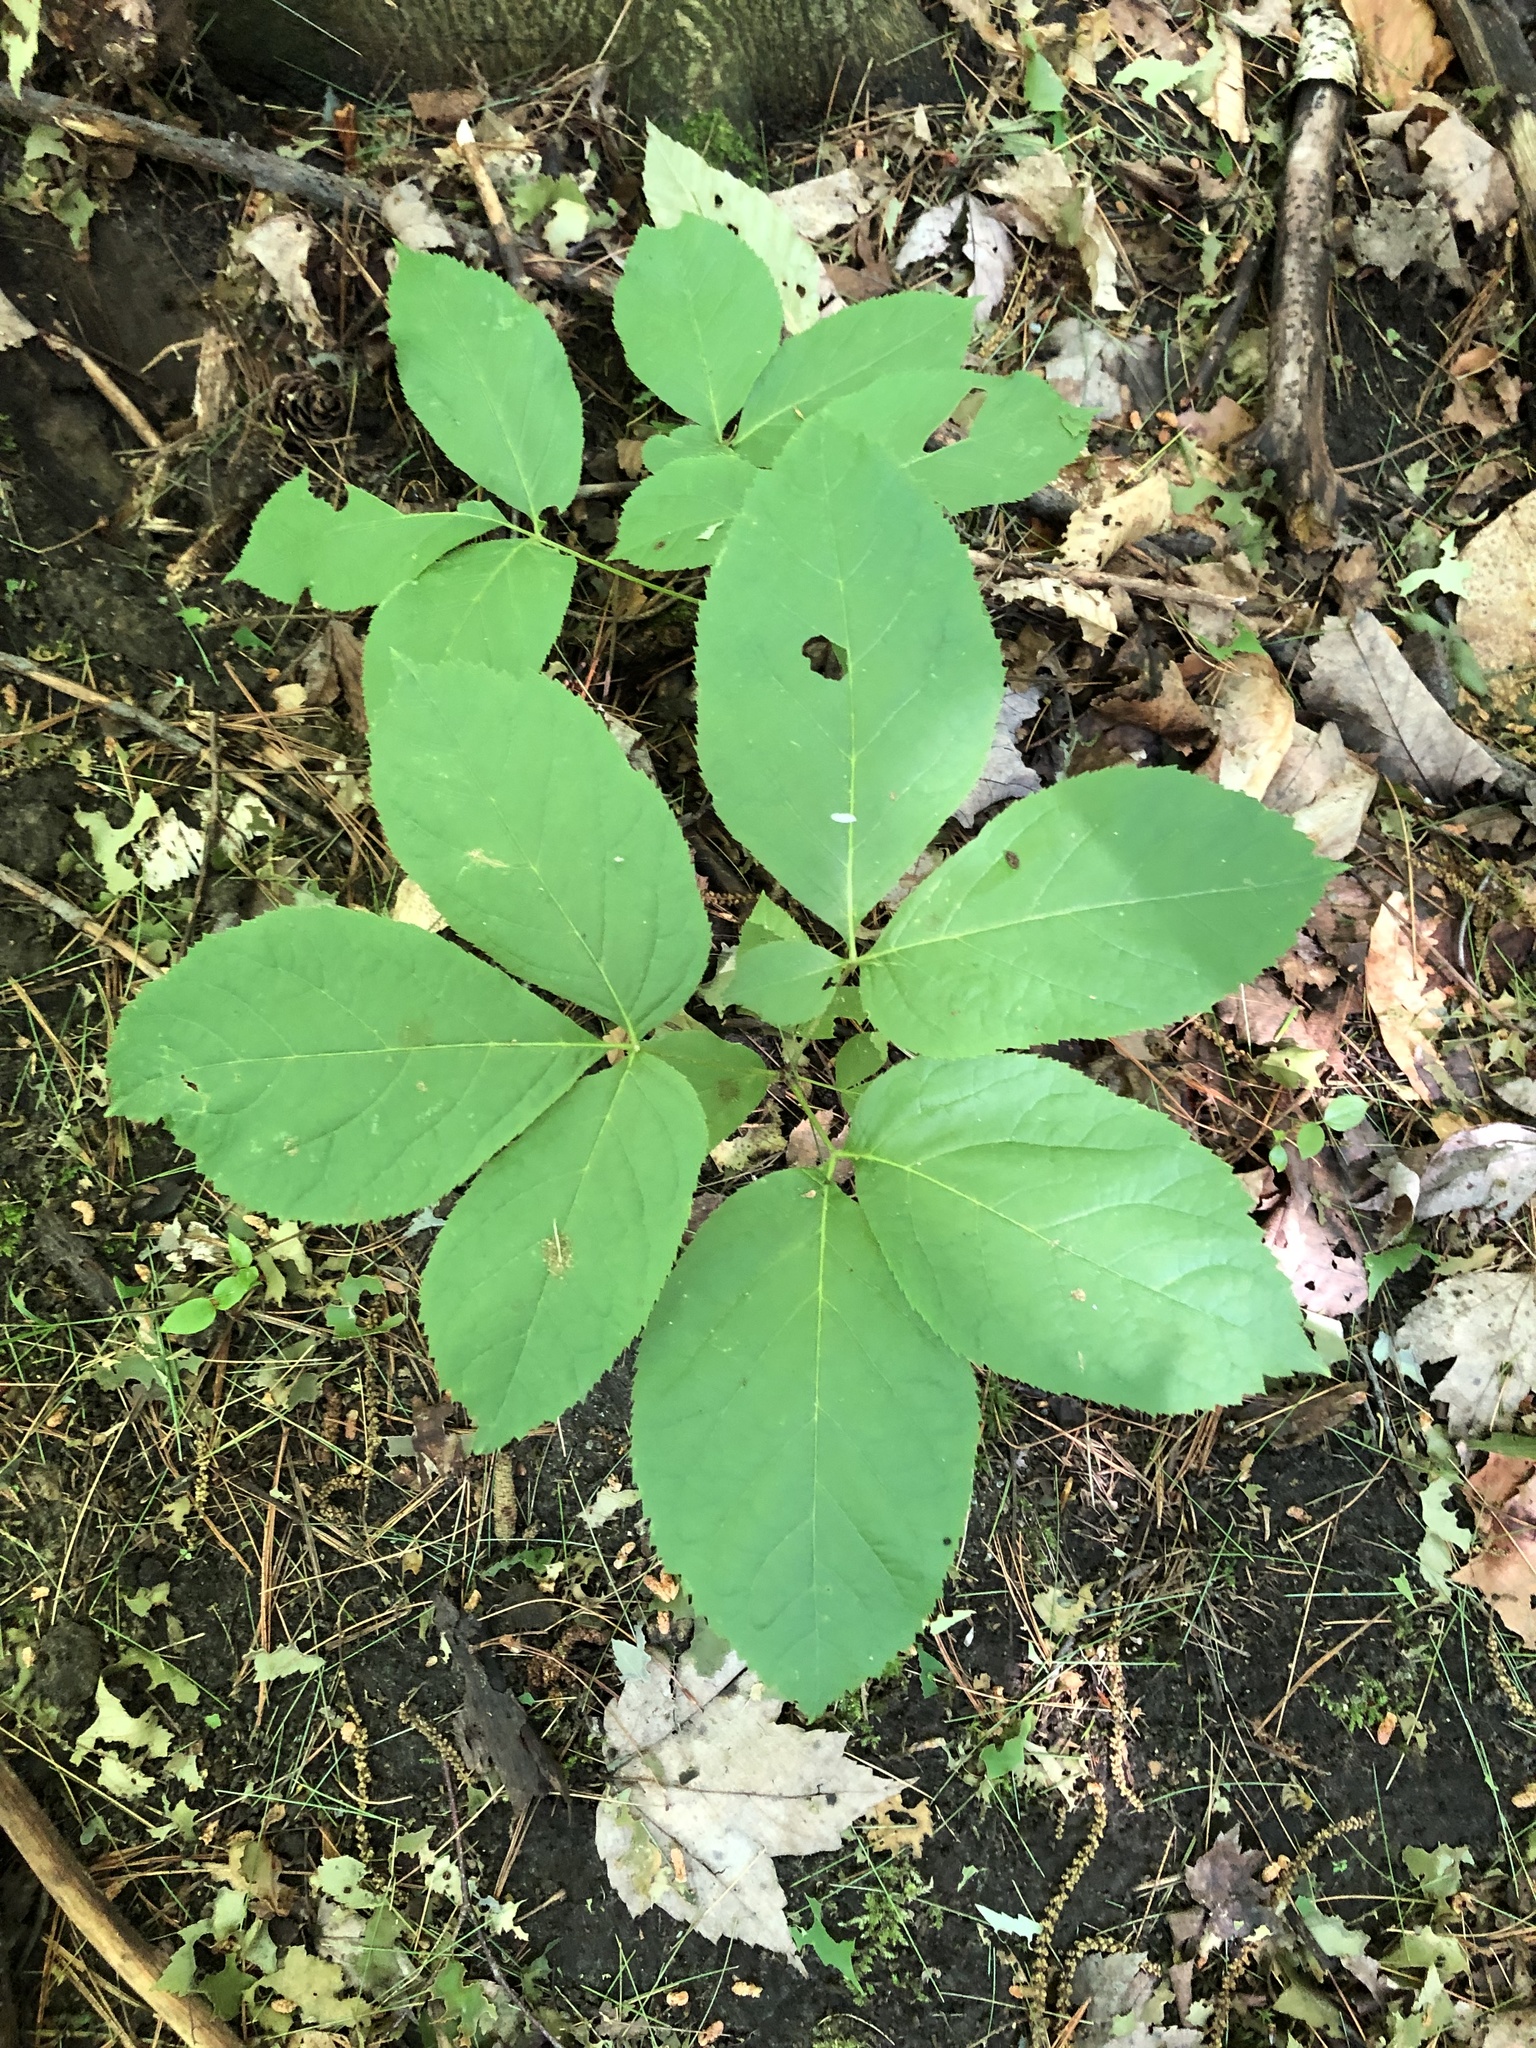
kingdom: Plantae
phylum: Tracheophyta
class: Magnoliopsida
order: Apiales
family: Araliaceae
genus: Aralia
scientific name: Aralia nudicaulis
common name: Wild sarsaparilla
